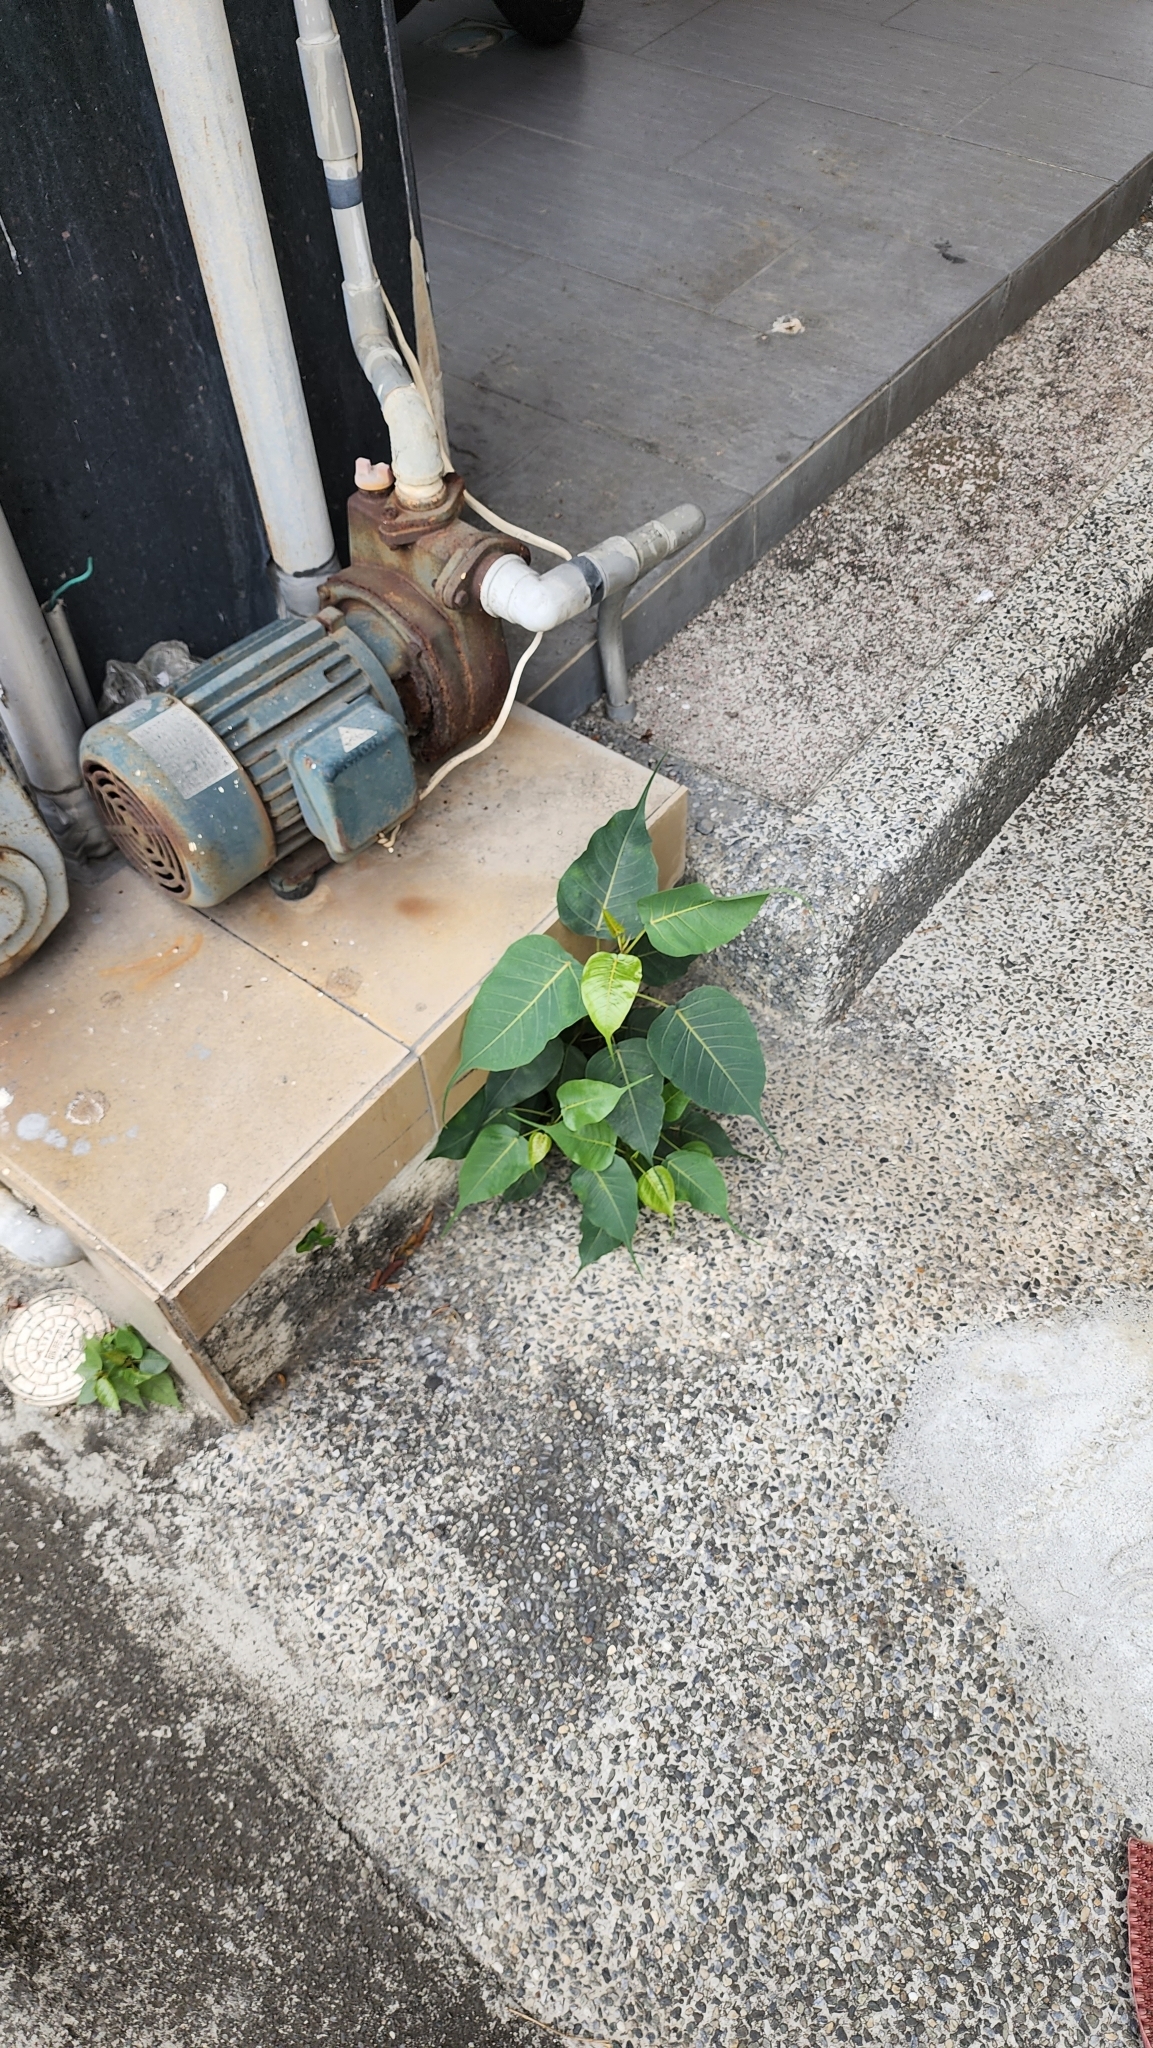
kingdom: Plantae
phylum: Tracheophyta
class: Magnoliopsida
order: Rosales
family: Moraceae
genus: Ficus
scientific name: Ficus religiosa
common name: Bodhi tree
